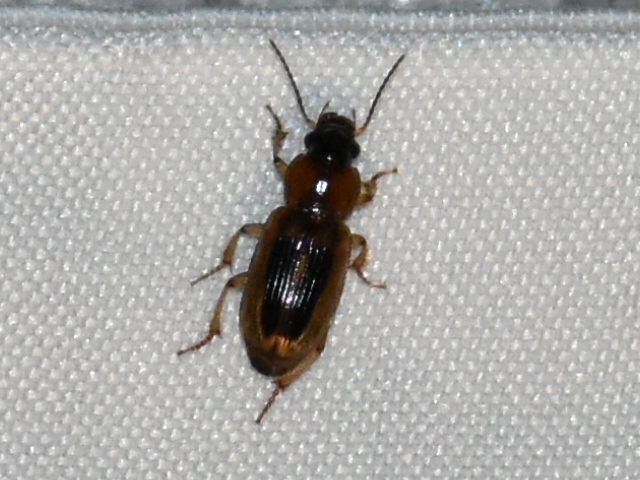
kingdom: Animalia
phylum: Arthropoda
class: Insecta
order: Coleoptera
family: Carabidae
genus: Stenolophus
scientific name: Stenolophus lecontei
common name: Leconte's seedcorn beetle
